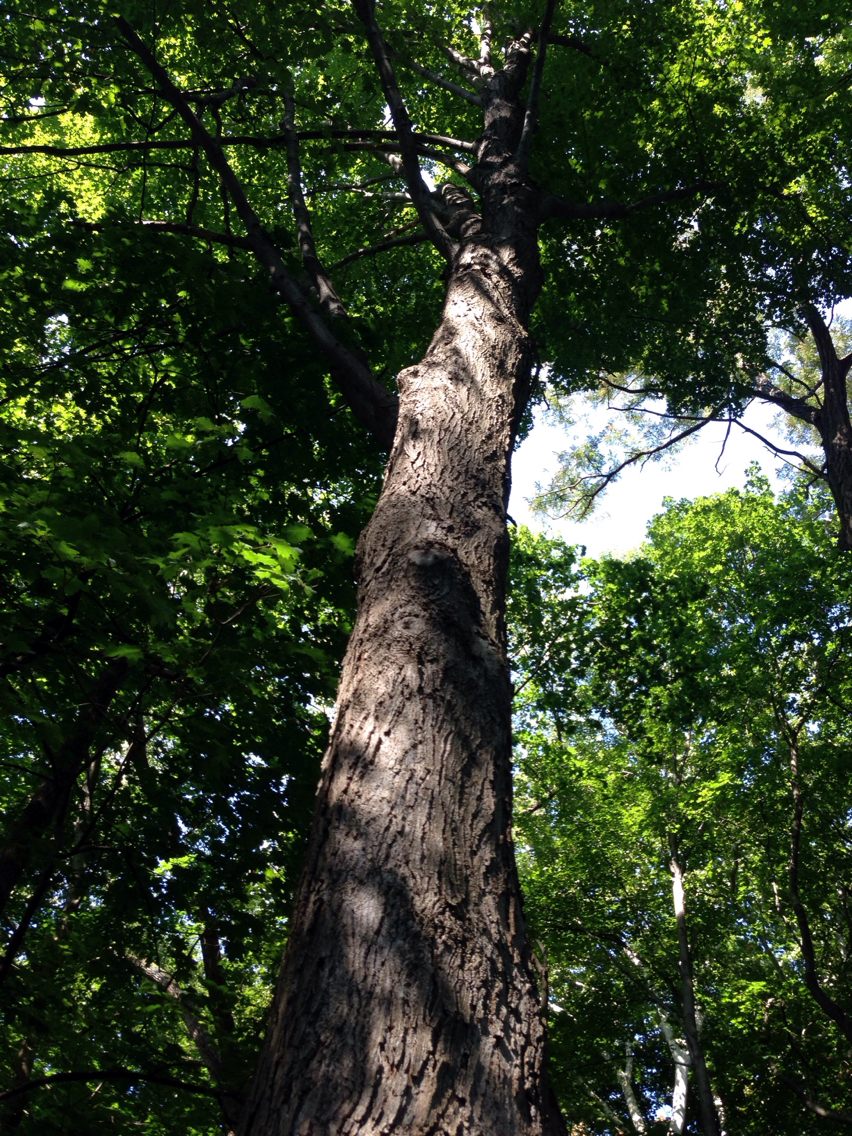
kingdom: Plantae
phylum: Tracheophyta
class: Magnoliopsida
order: Sapindales
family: Sapindaceae
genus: Acer
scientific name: Acer saccharum
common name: Sugar maple
